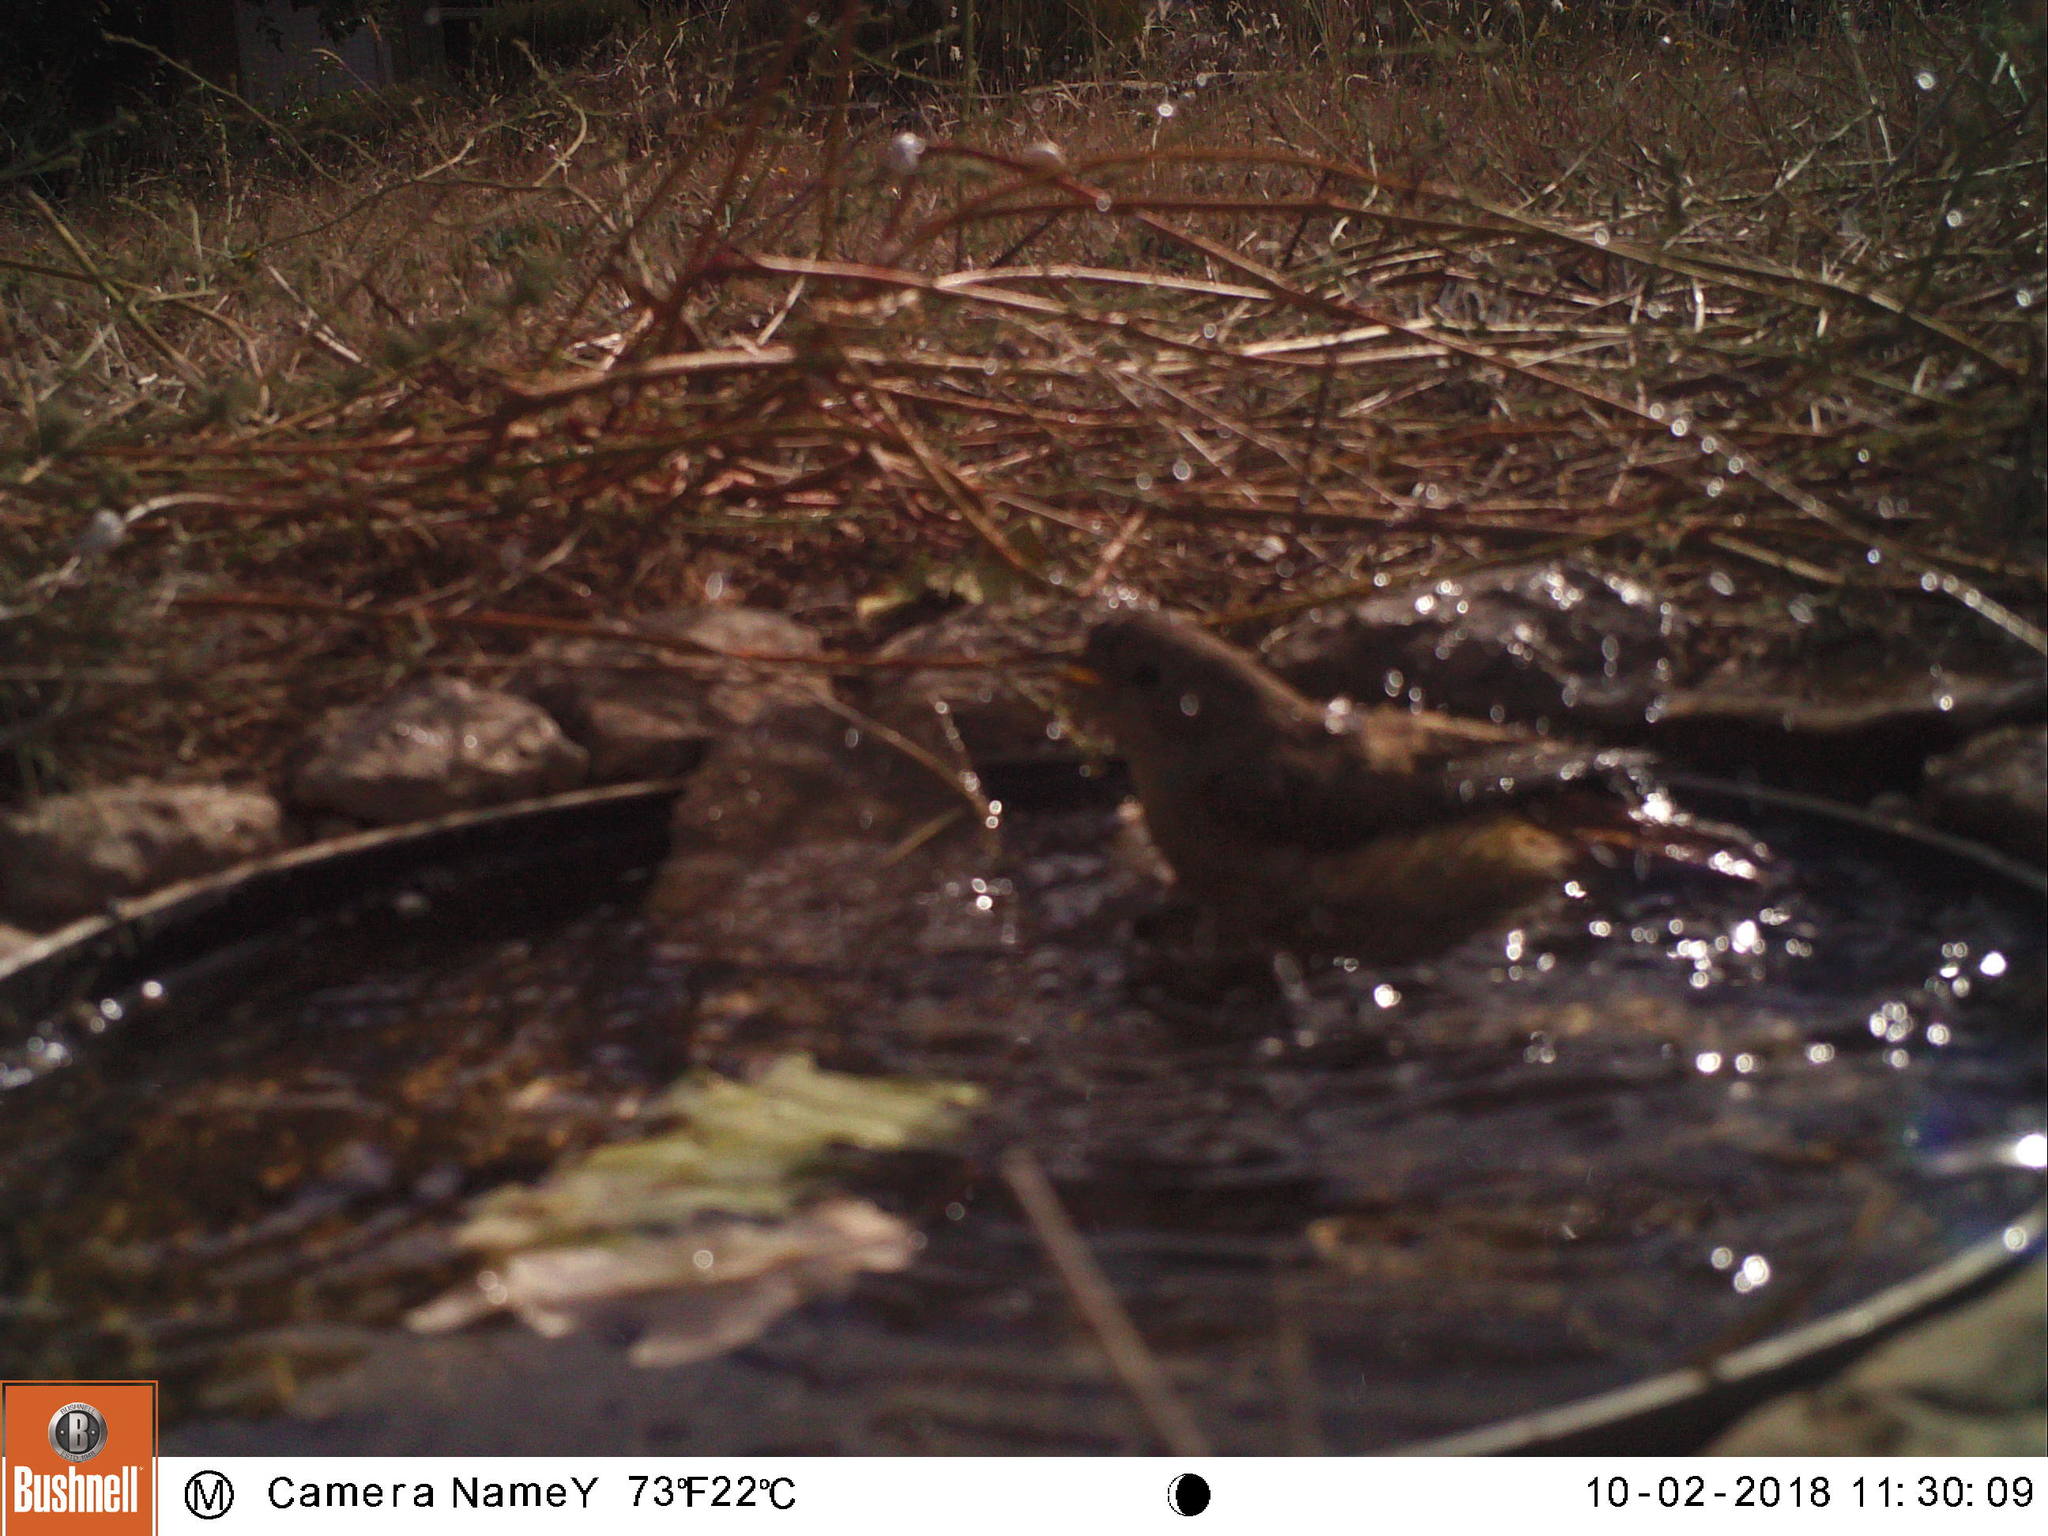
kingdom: Animalia
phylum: Chordata
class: Aves
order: Passeriformes
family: Muscicapidae
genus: Phoenicurus
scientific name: Phoenicurus ochruros
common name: Black redstart
